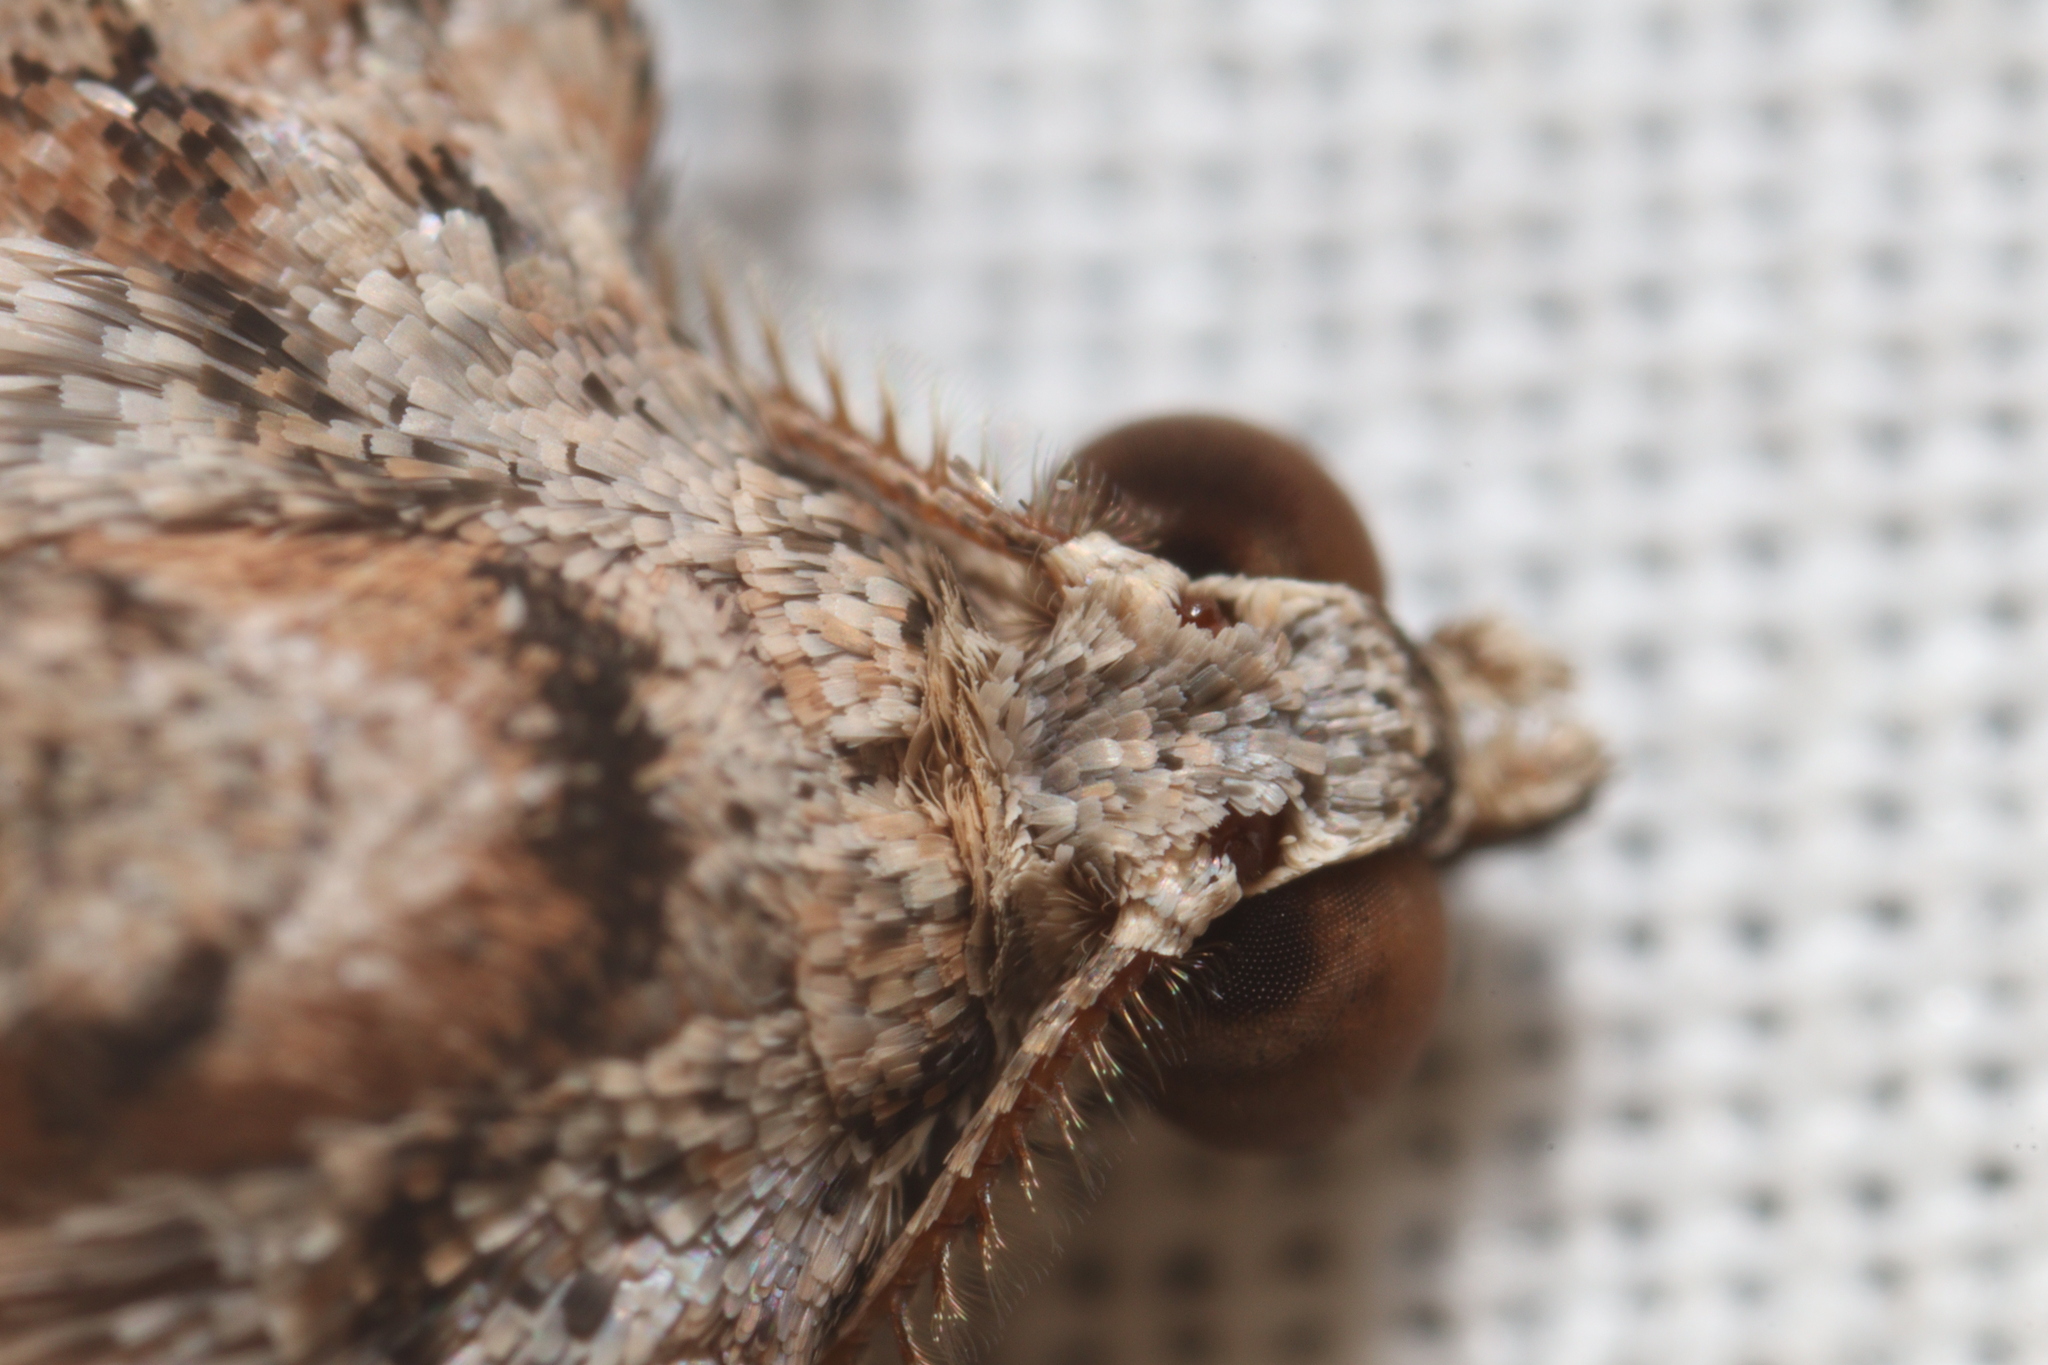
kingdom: Animalia
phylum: Arthropoda
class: Insecta
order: Lepidoptera
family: Geometridae
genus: Didymoctenia
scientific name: Didymoctenia exsuperata
